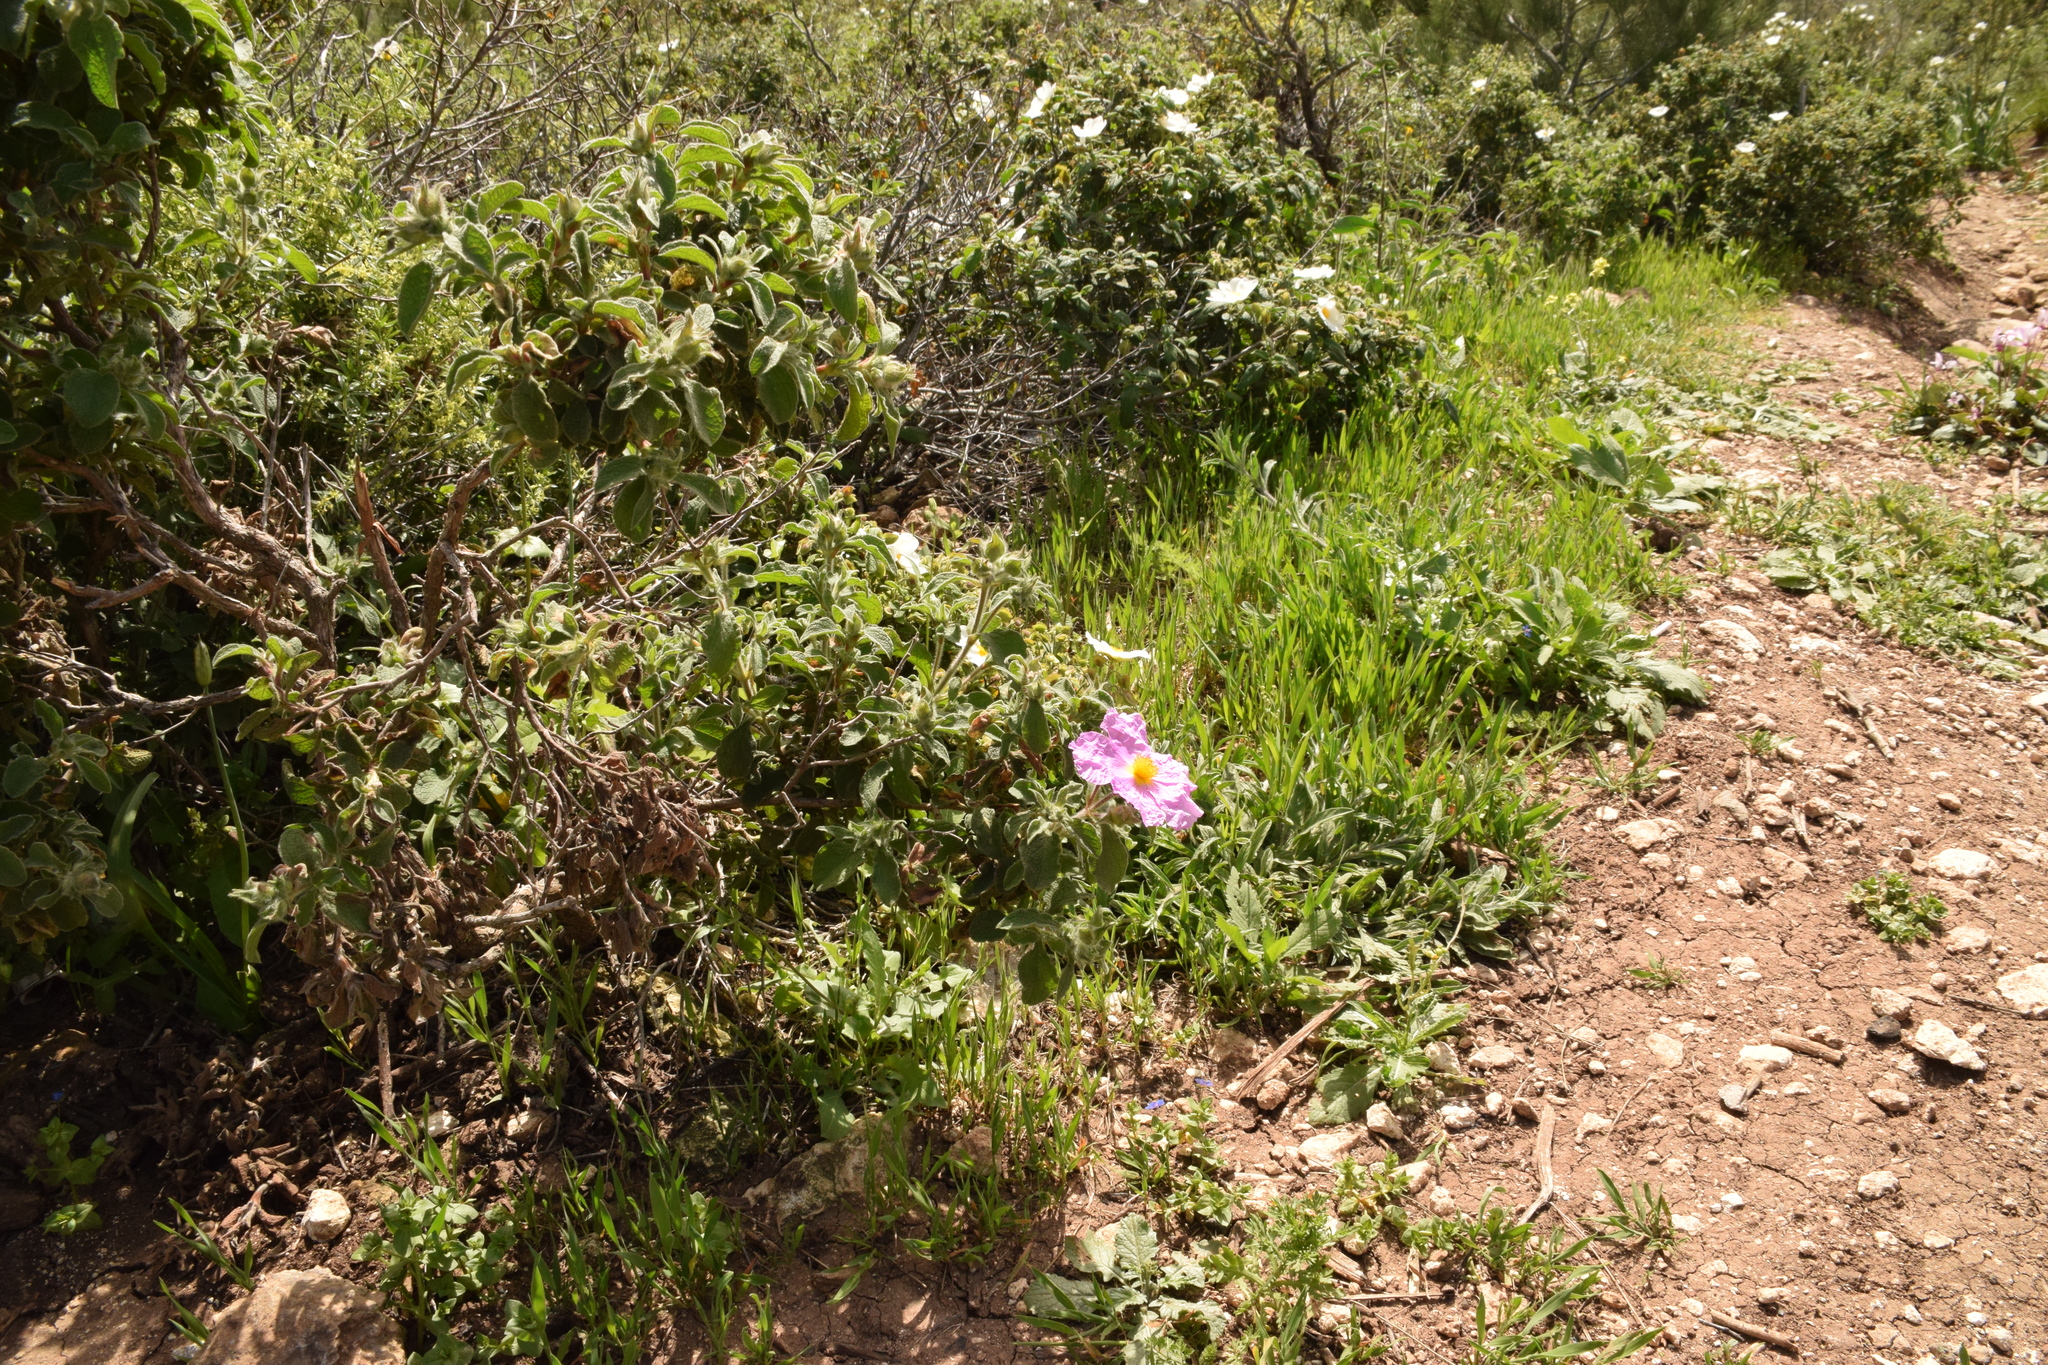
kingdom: Plantae
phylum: Tracheophyta
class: Magnoliopsida
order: Malvales
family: Cistaceae
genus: Cistus
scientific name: Cistus creticus
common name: Cretan rockrose
